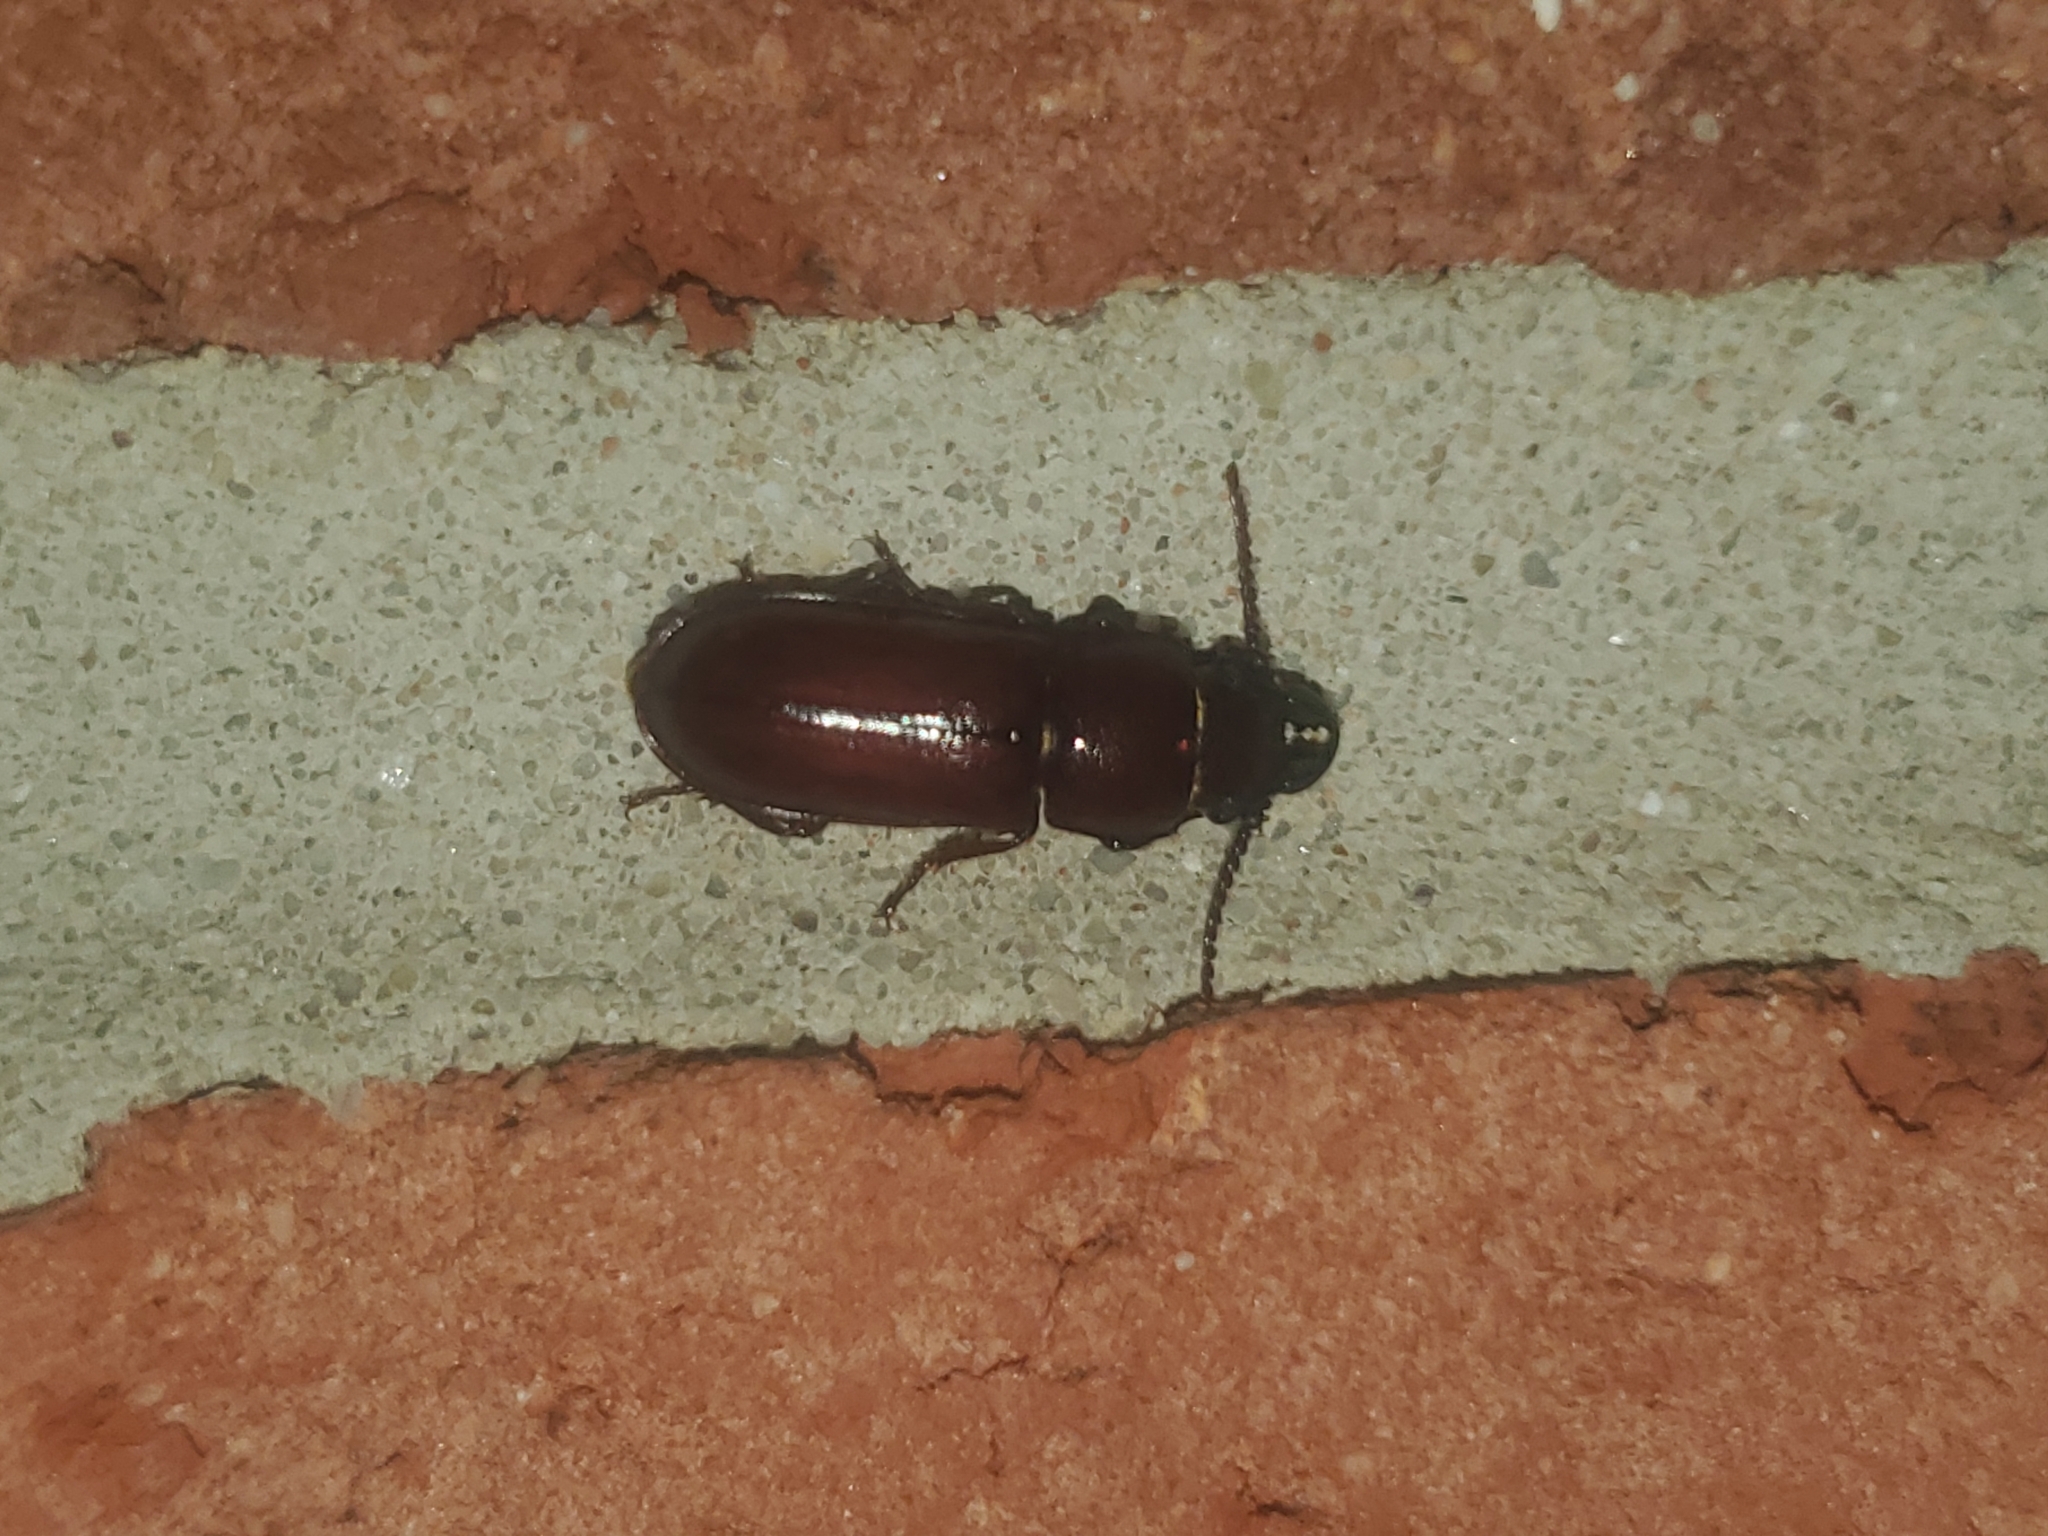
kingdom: Animalia
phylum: Arthropoda
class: Insecta
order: Coleoptera
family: Cerambycidae
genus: Neandra
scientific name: Neandra brunnea
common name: Pole borer
